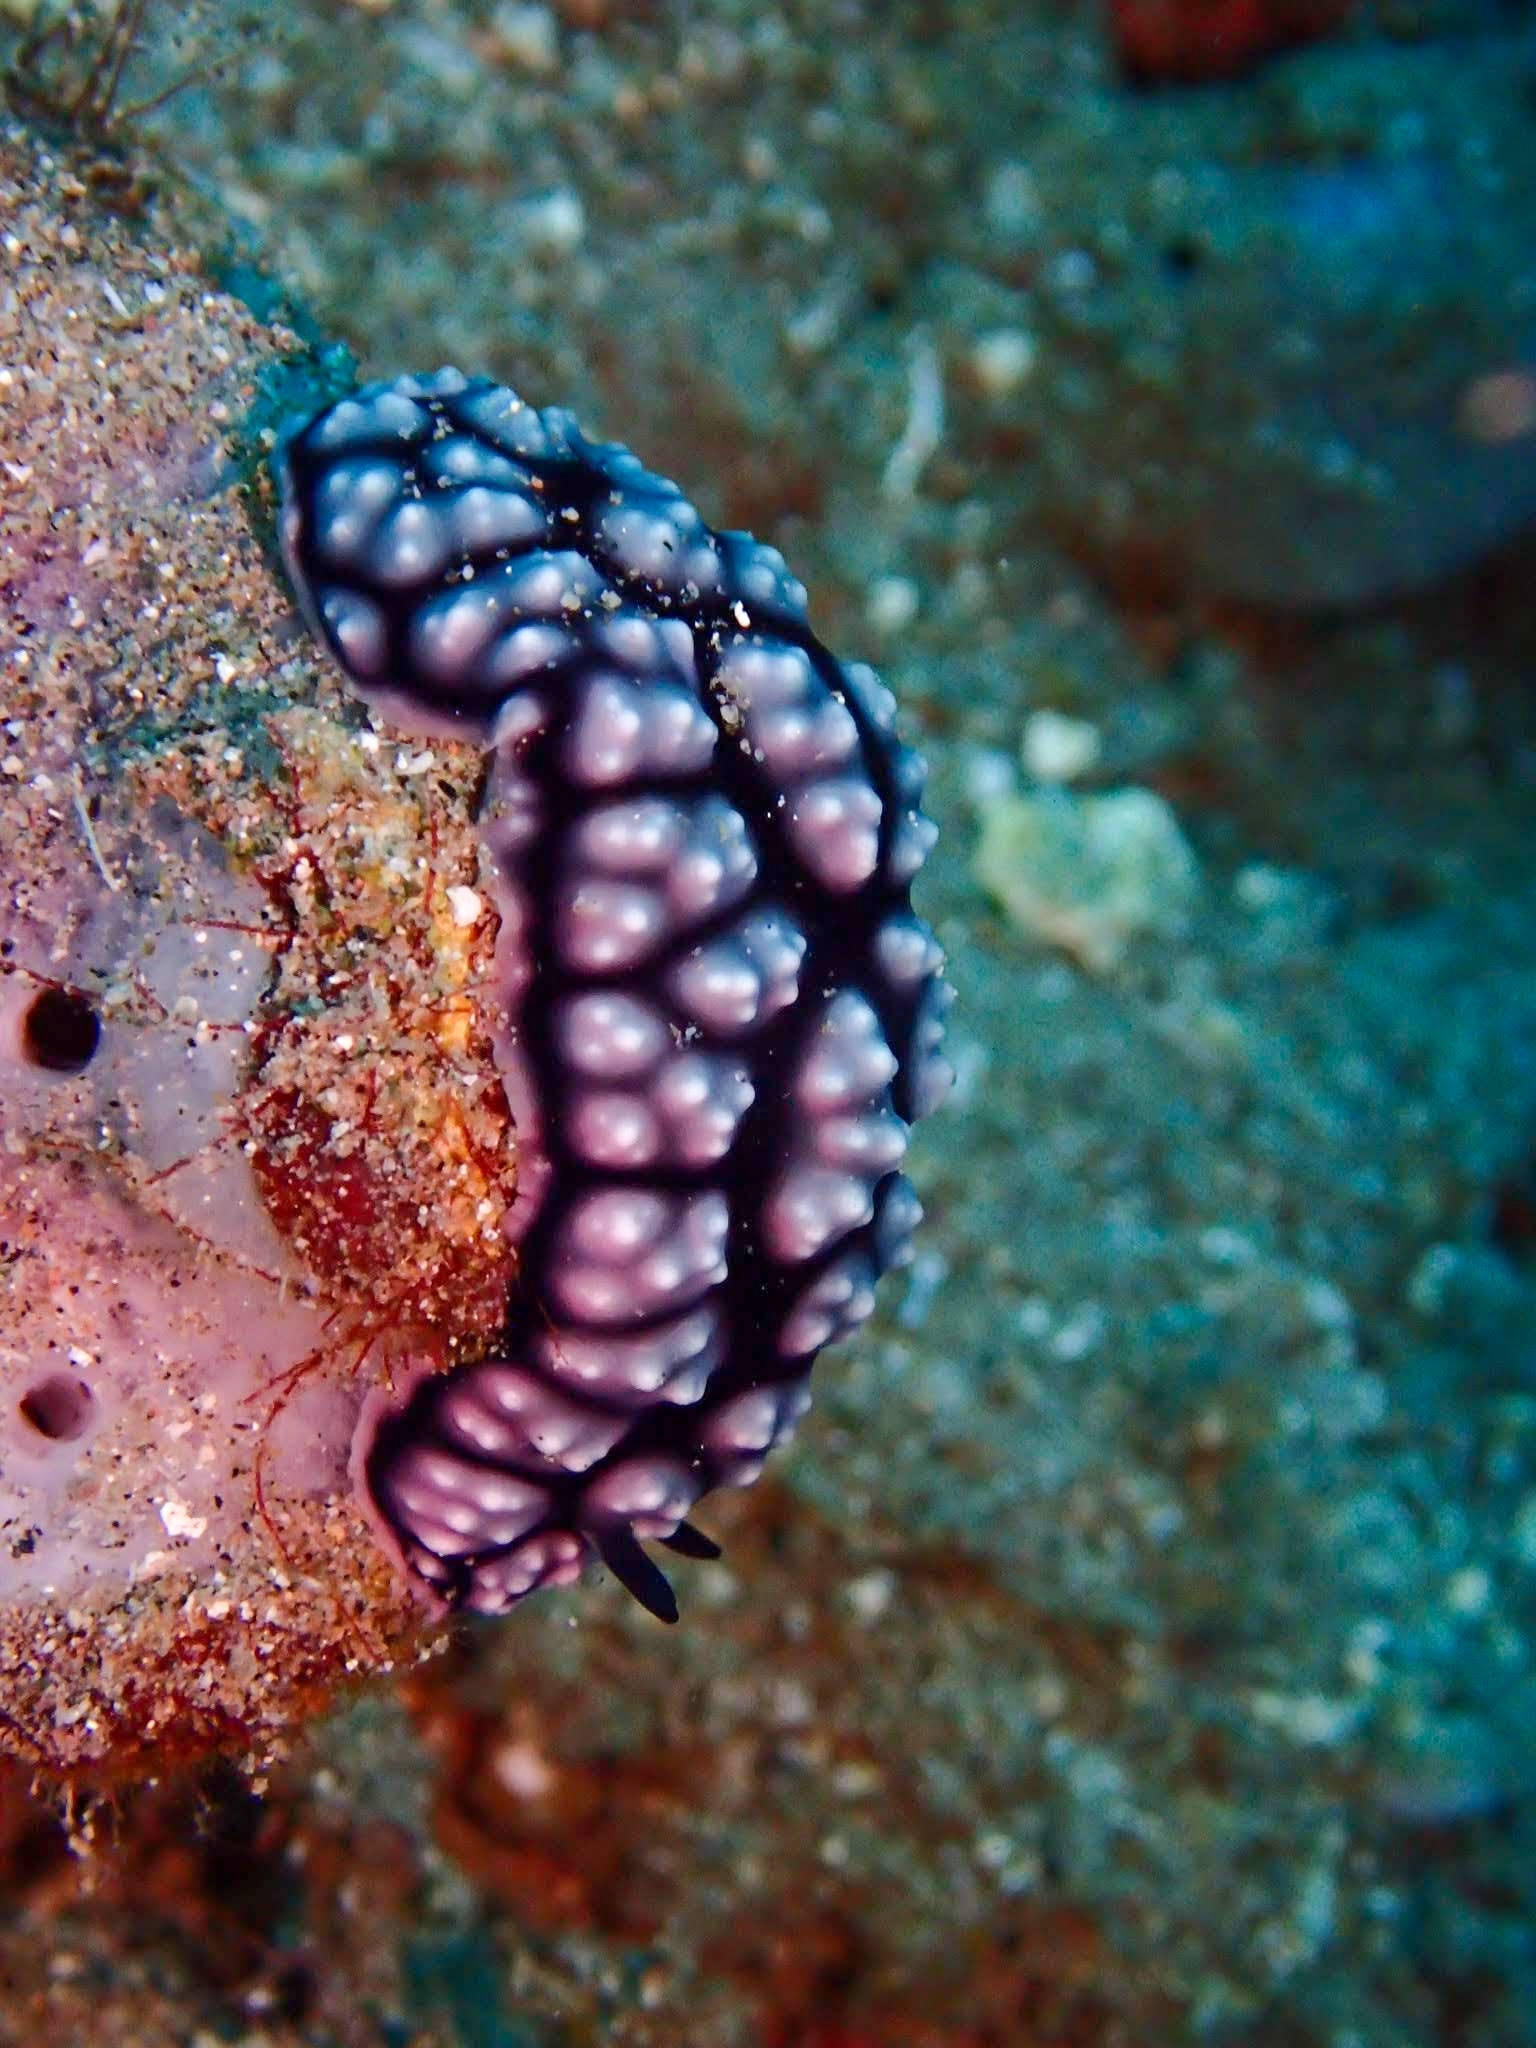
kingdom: Animalia
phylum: Mollusca
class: Gastropoda
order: Nudibranchia
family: Phyllidiidae
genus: Phyllidiella
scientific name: Phyllidiella pustulosa
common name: Pustular phyllidia
